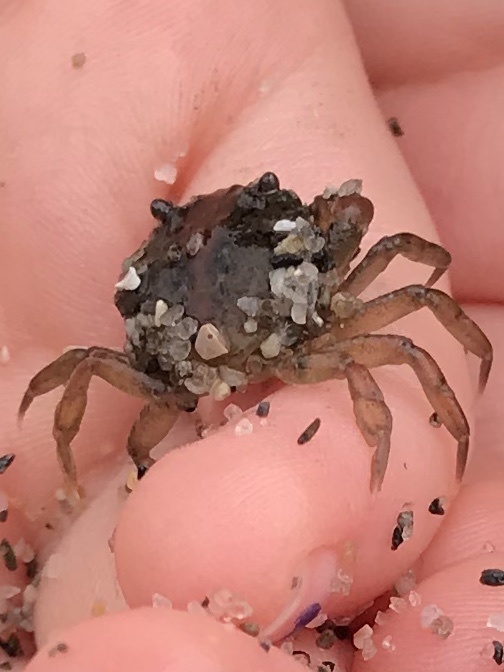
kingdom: Animalia
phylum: Arthropoda
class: Malacostraca
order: Decapoda
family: Carcinidae
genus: Carcinus
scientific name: Carcinus maenas
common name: European green crab
